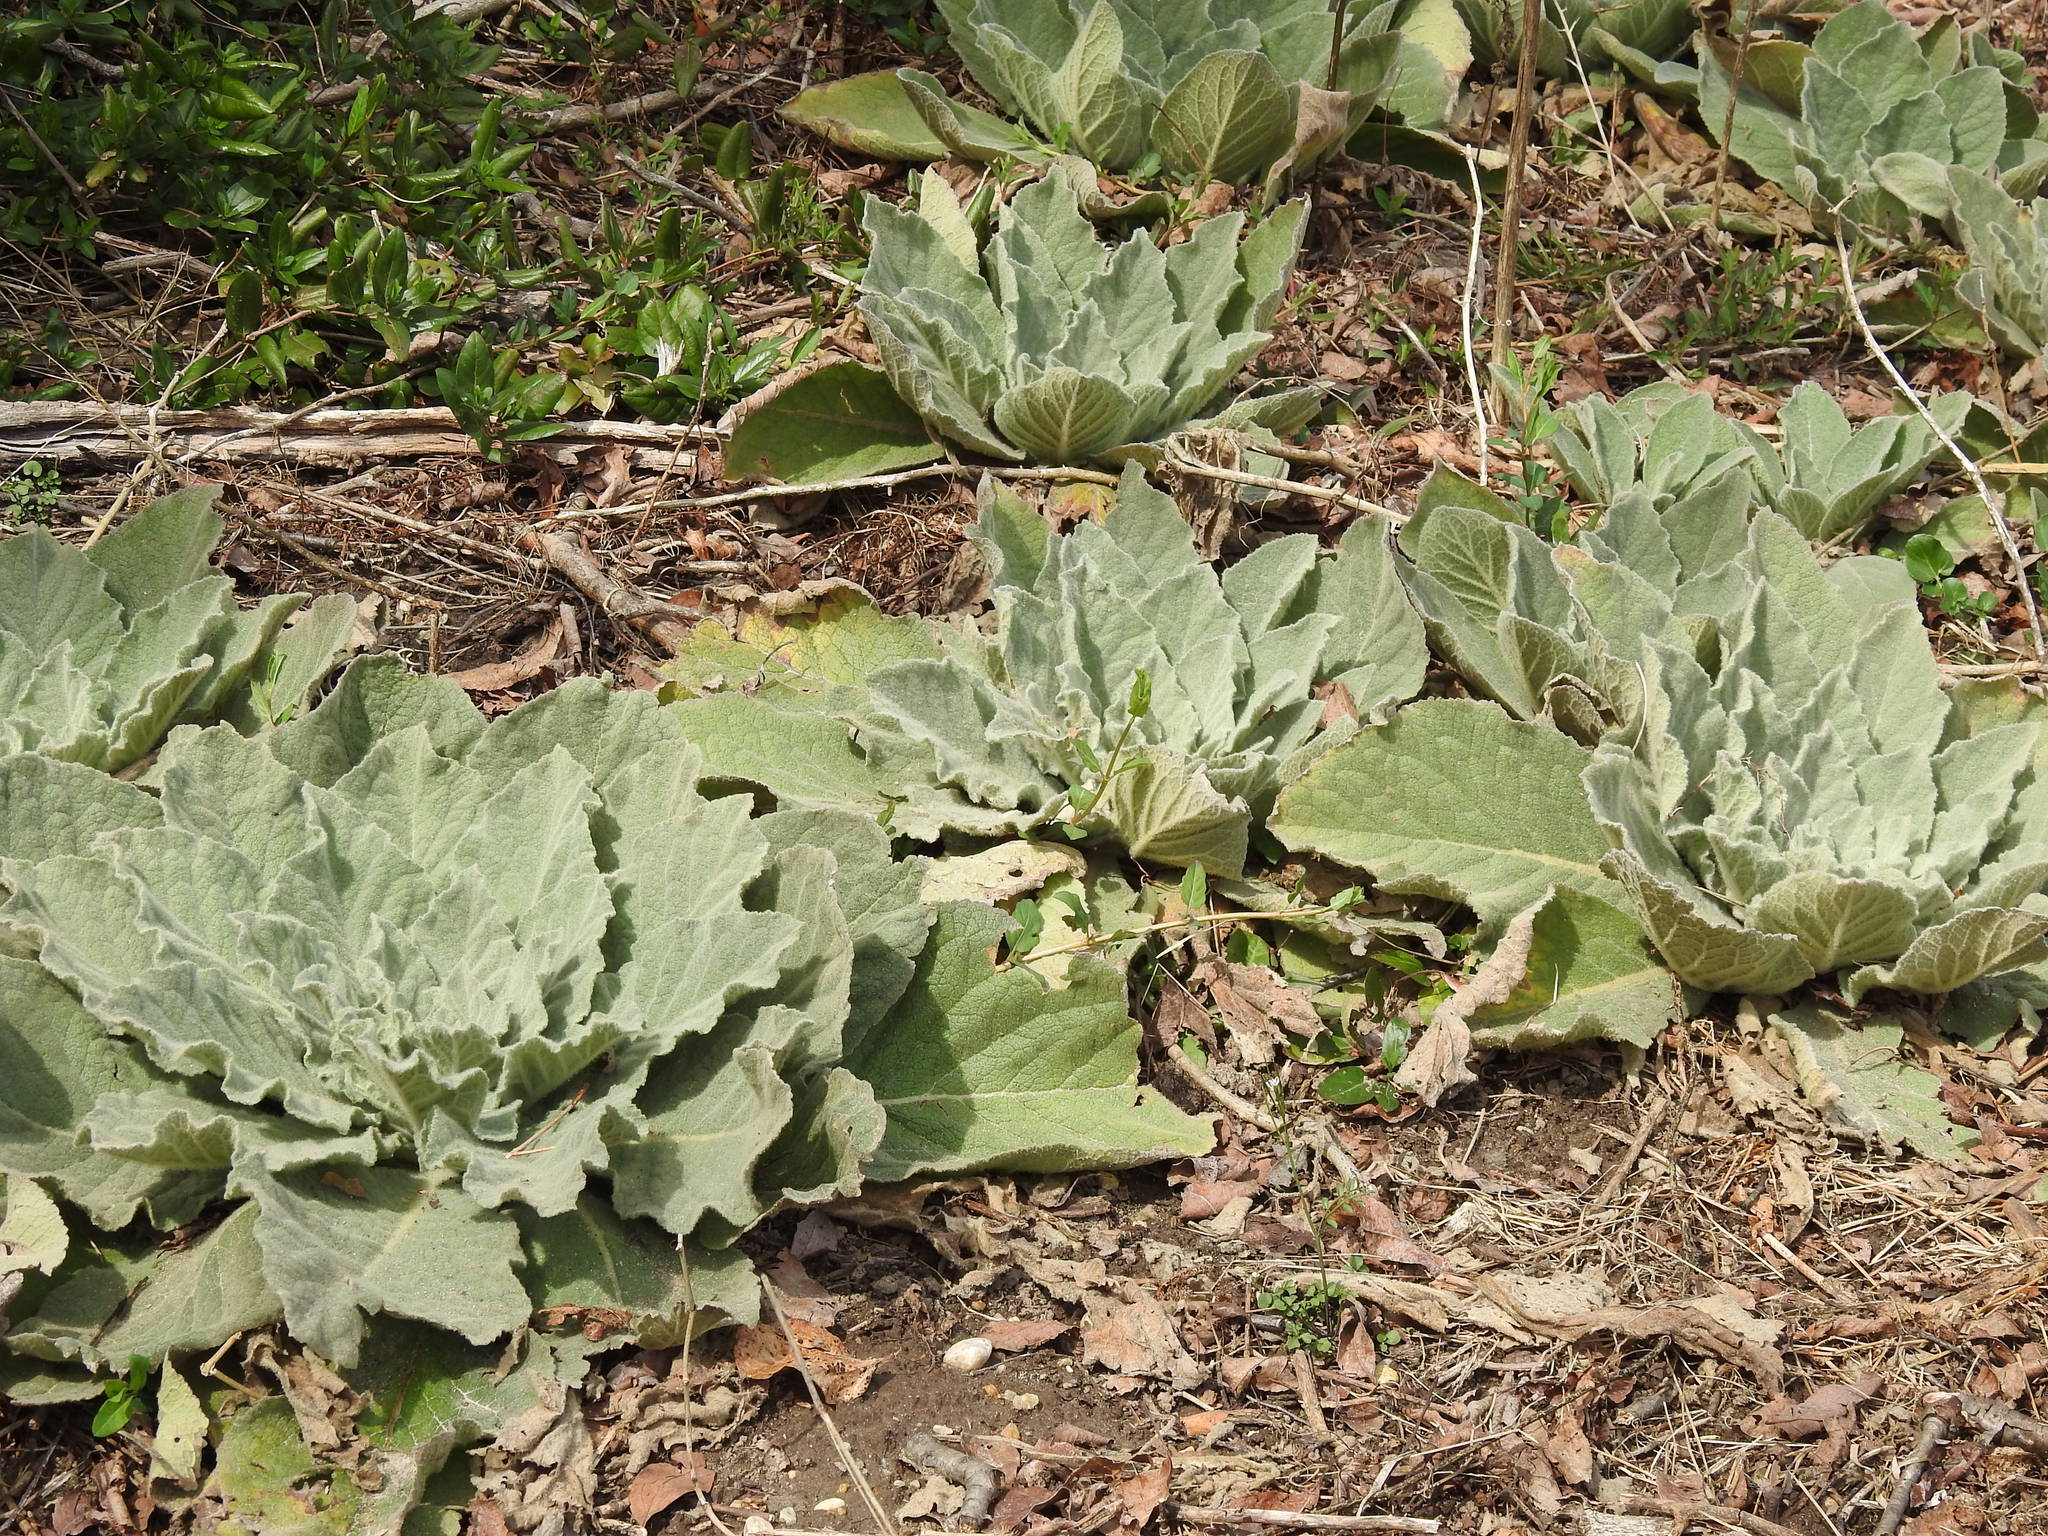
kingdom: Plantae
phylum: Tracheophyta
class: Magnoliopsida
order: Lamiales
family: Scrophulariaceae
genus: Verbascum
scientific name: Verbascum thapsus
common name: Common mullein
